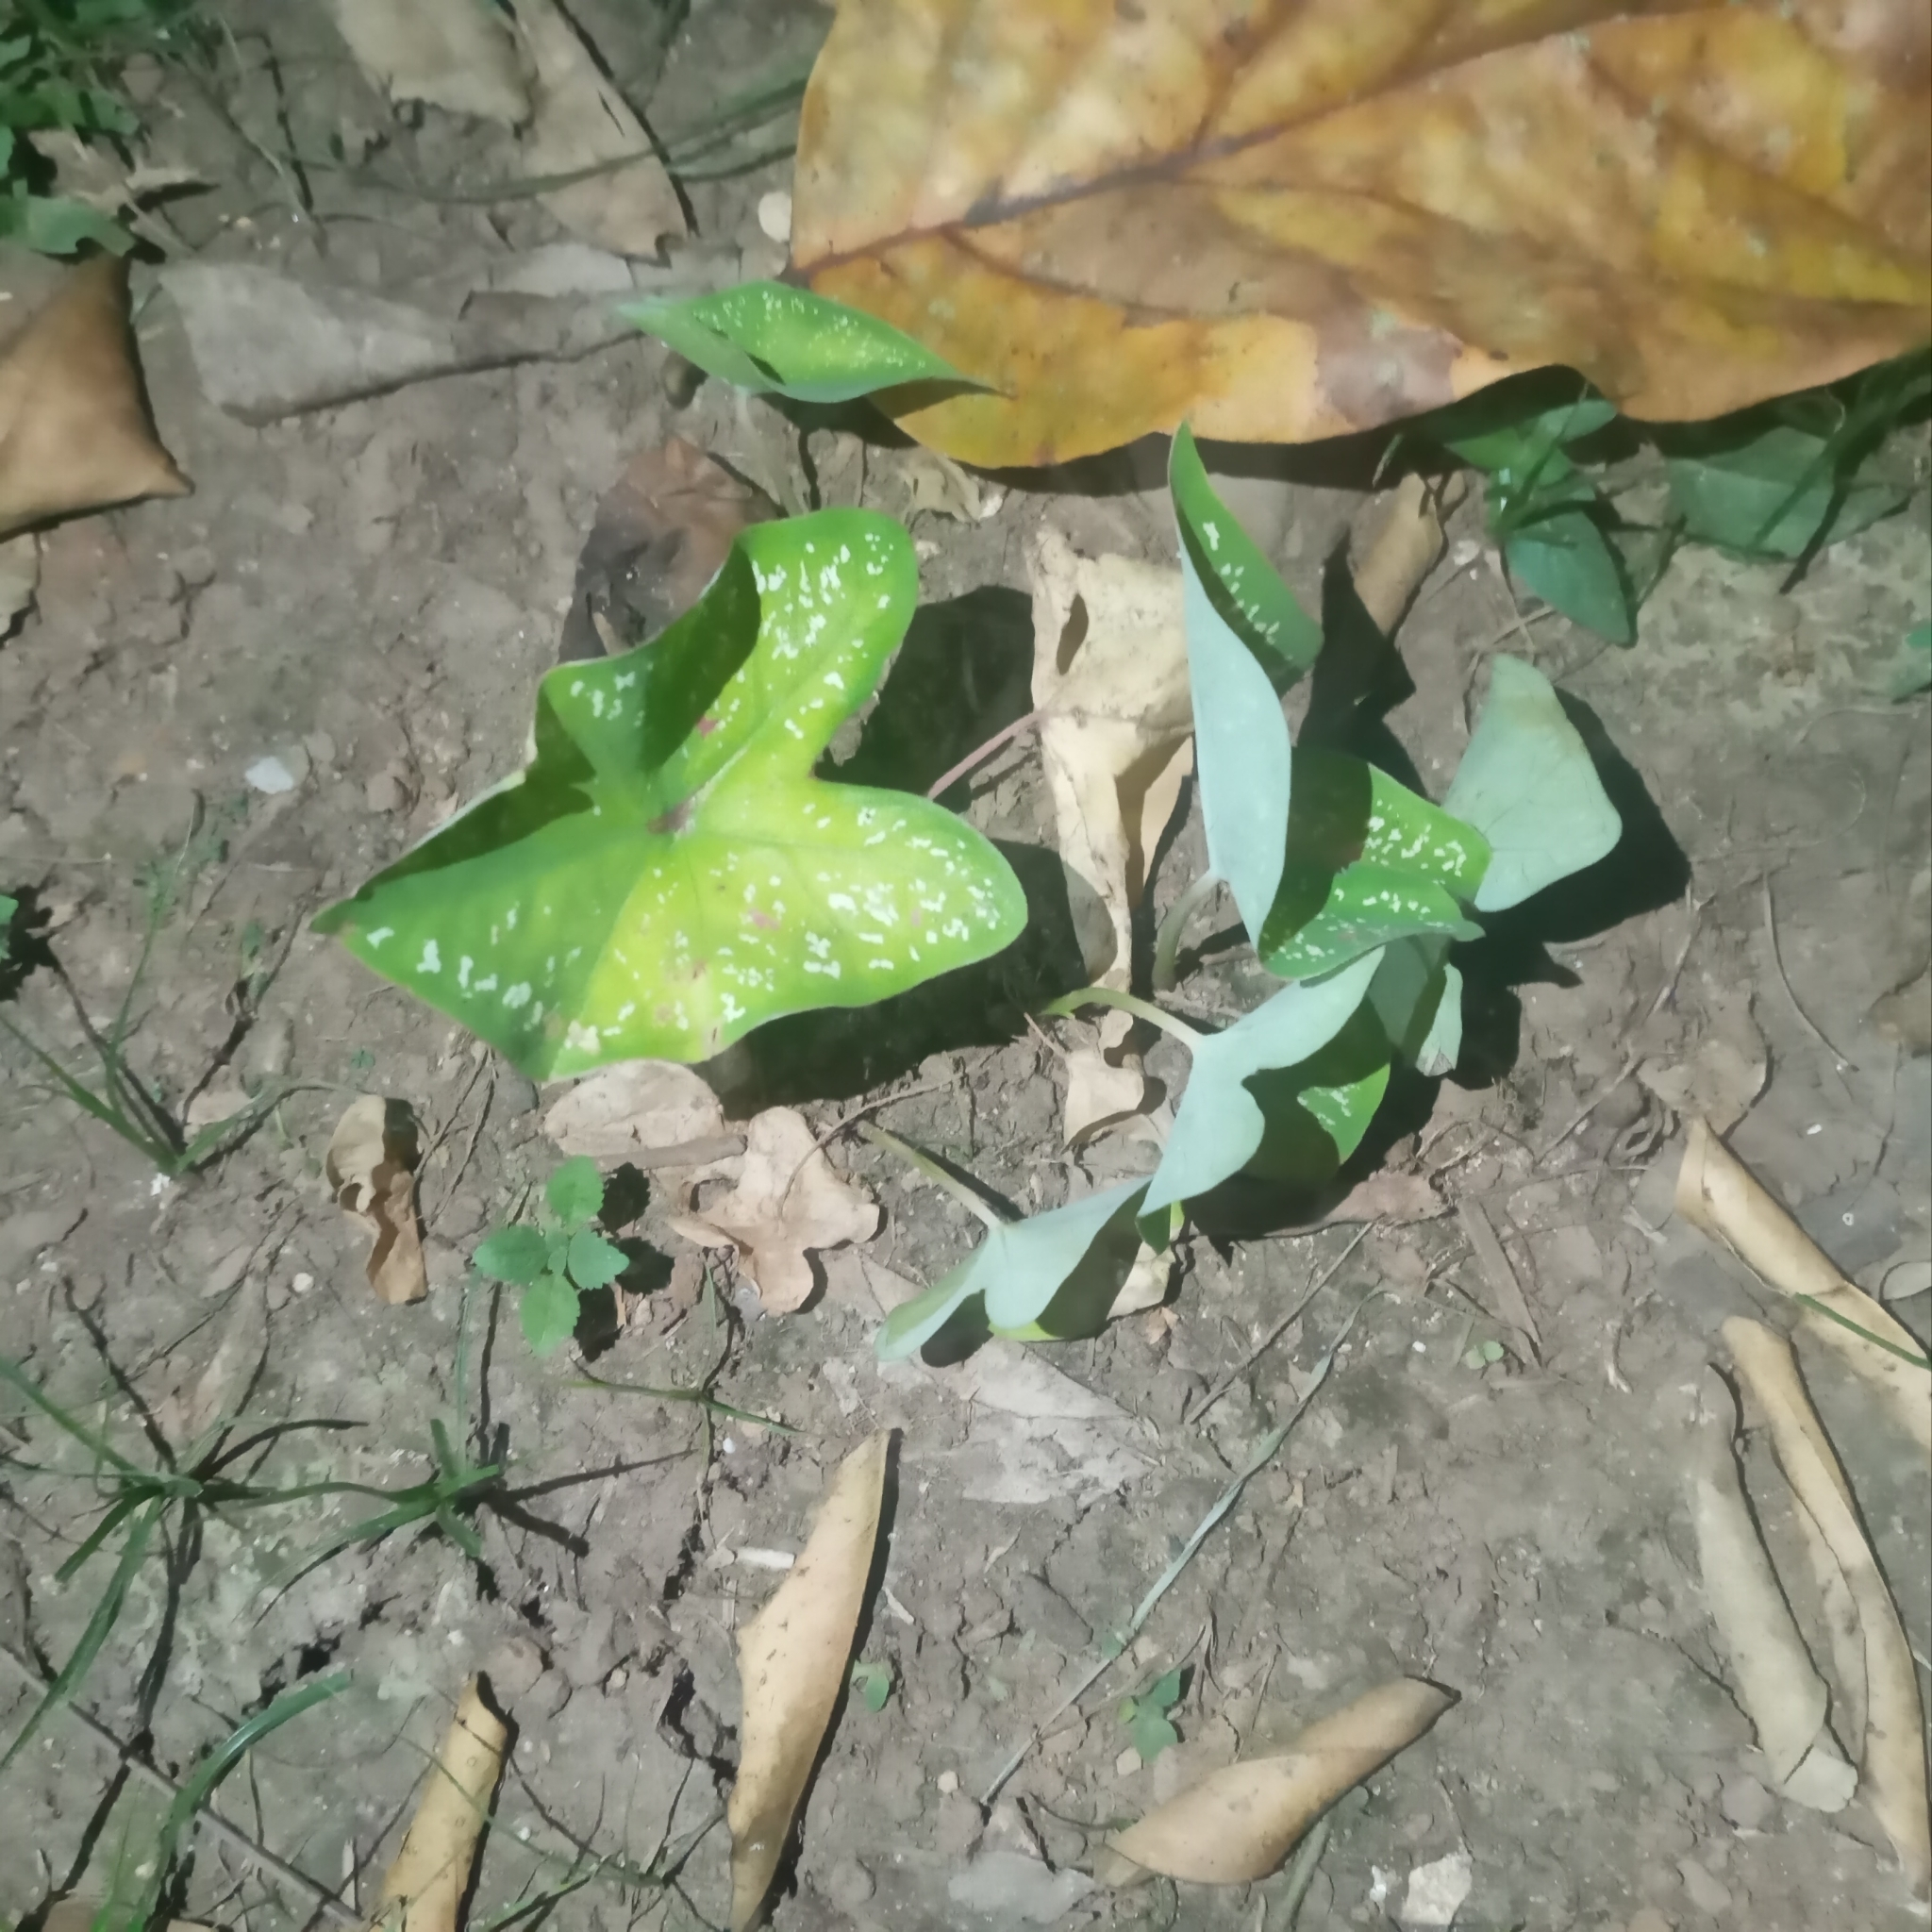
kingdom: Plantae
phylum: Tracheophyta
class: Liliopsida
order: Alismatales
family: Araceae
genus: Caladium
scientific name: Caladium bicolor
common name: Artist's pallet
